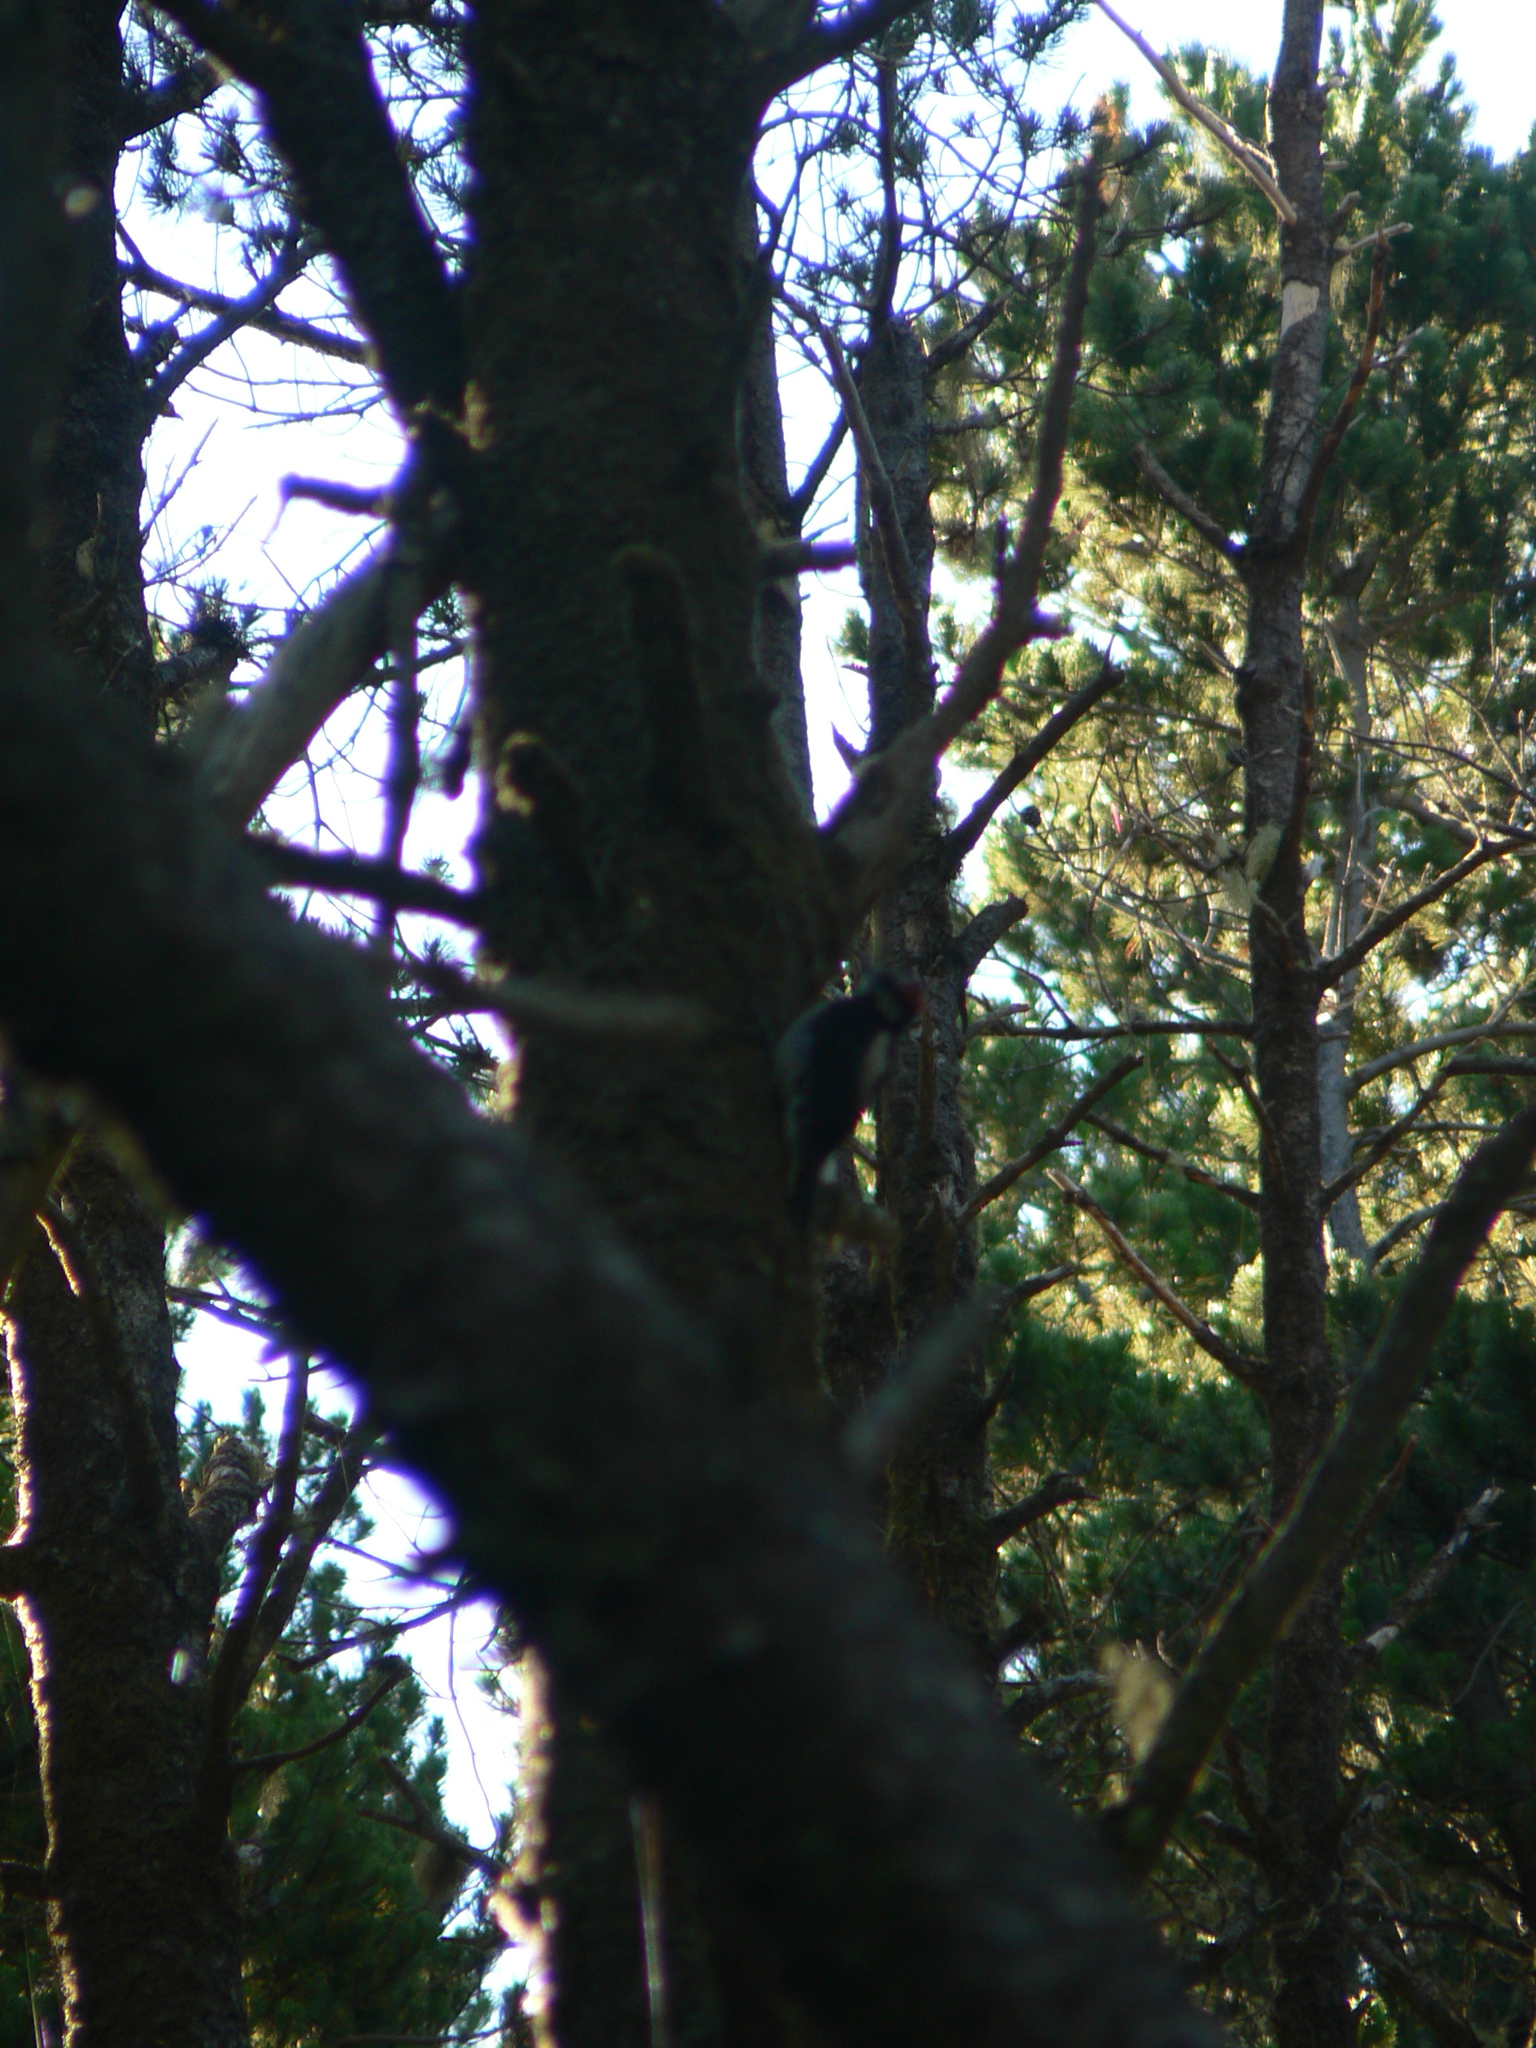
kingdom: Animalia
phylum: Chordata
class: Aves
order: Piciformes
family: Picidae
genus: Leuconotopicus
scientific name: Leuconotopicus villosus
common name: Hairy woodpecker
